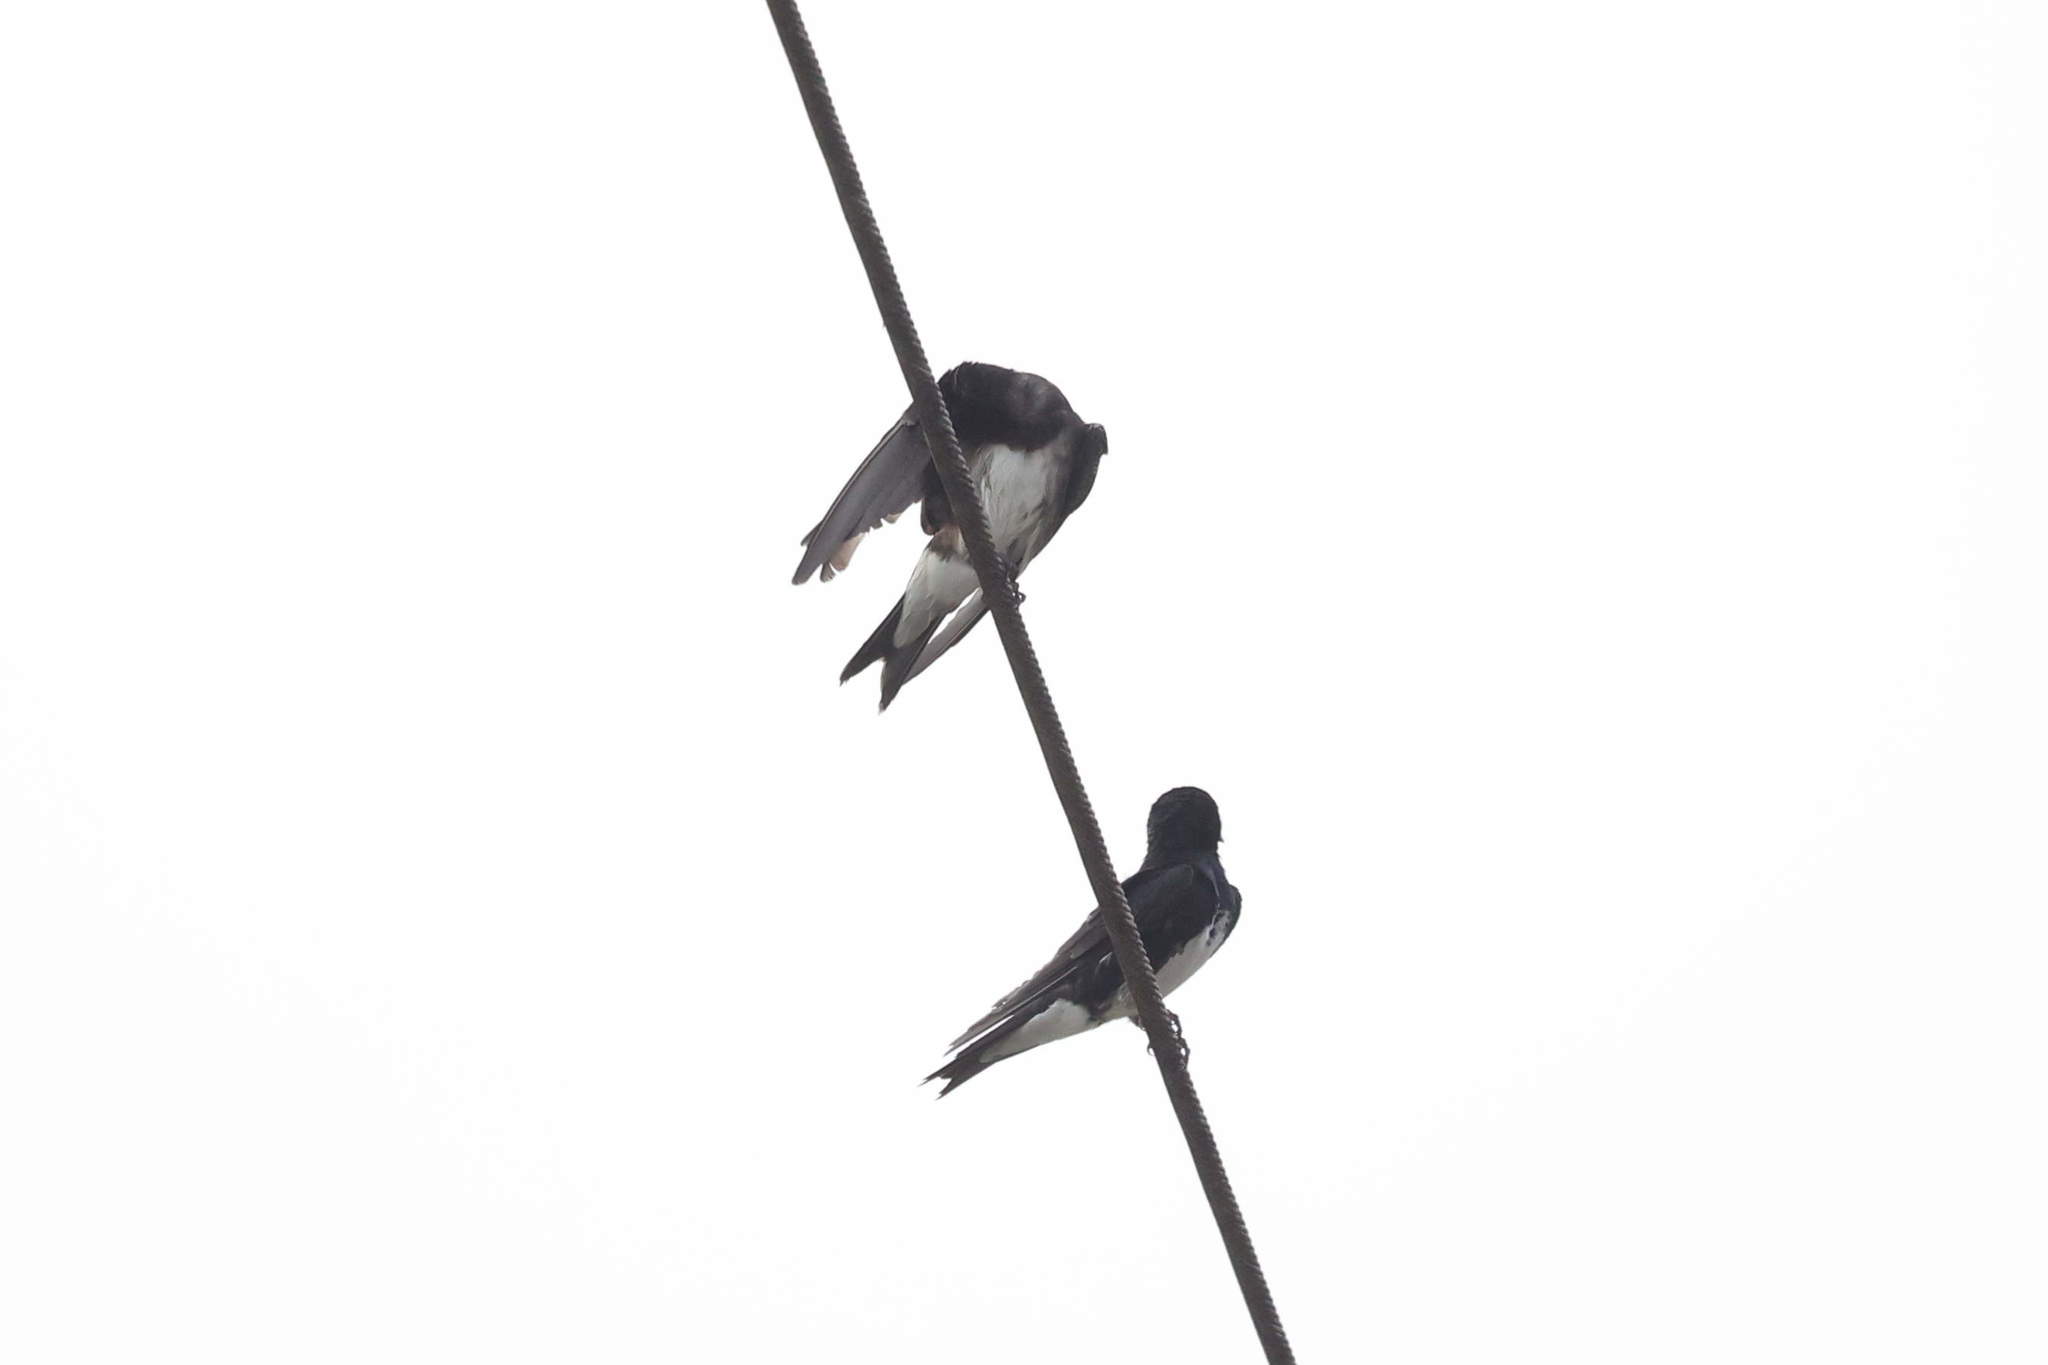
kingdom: Animalia
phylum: Chordata
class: Aves
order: Passeriformes
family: Hirundinidae
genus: Progne
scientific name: Progne dominicensis
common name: Caribbean martin
